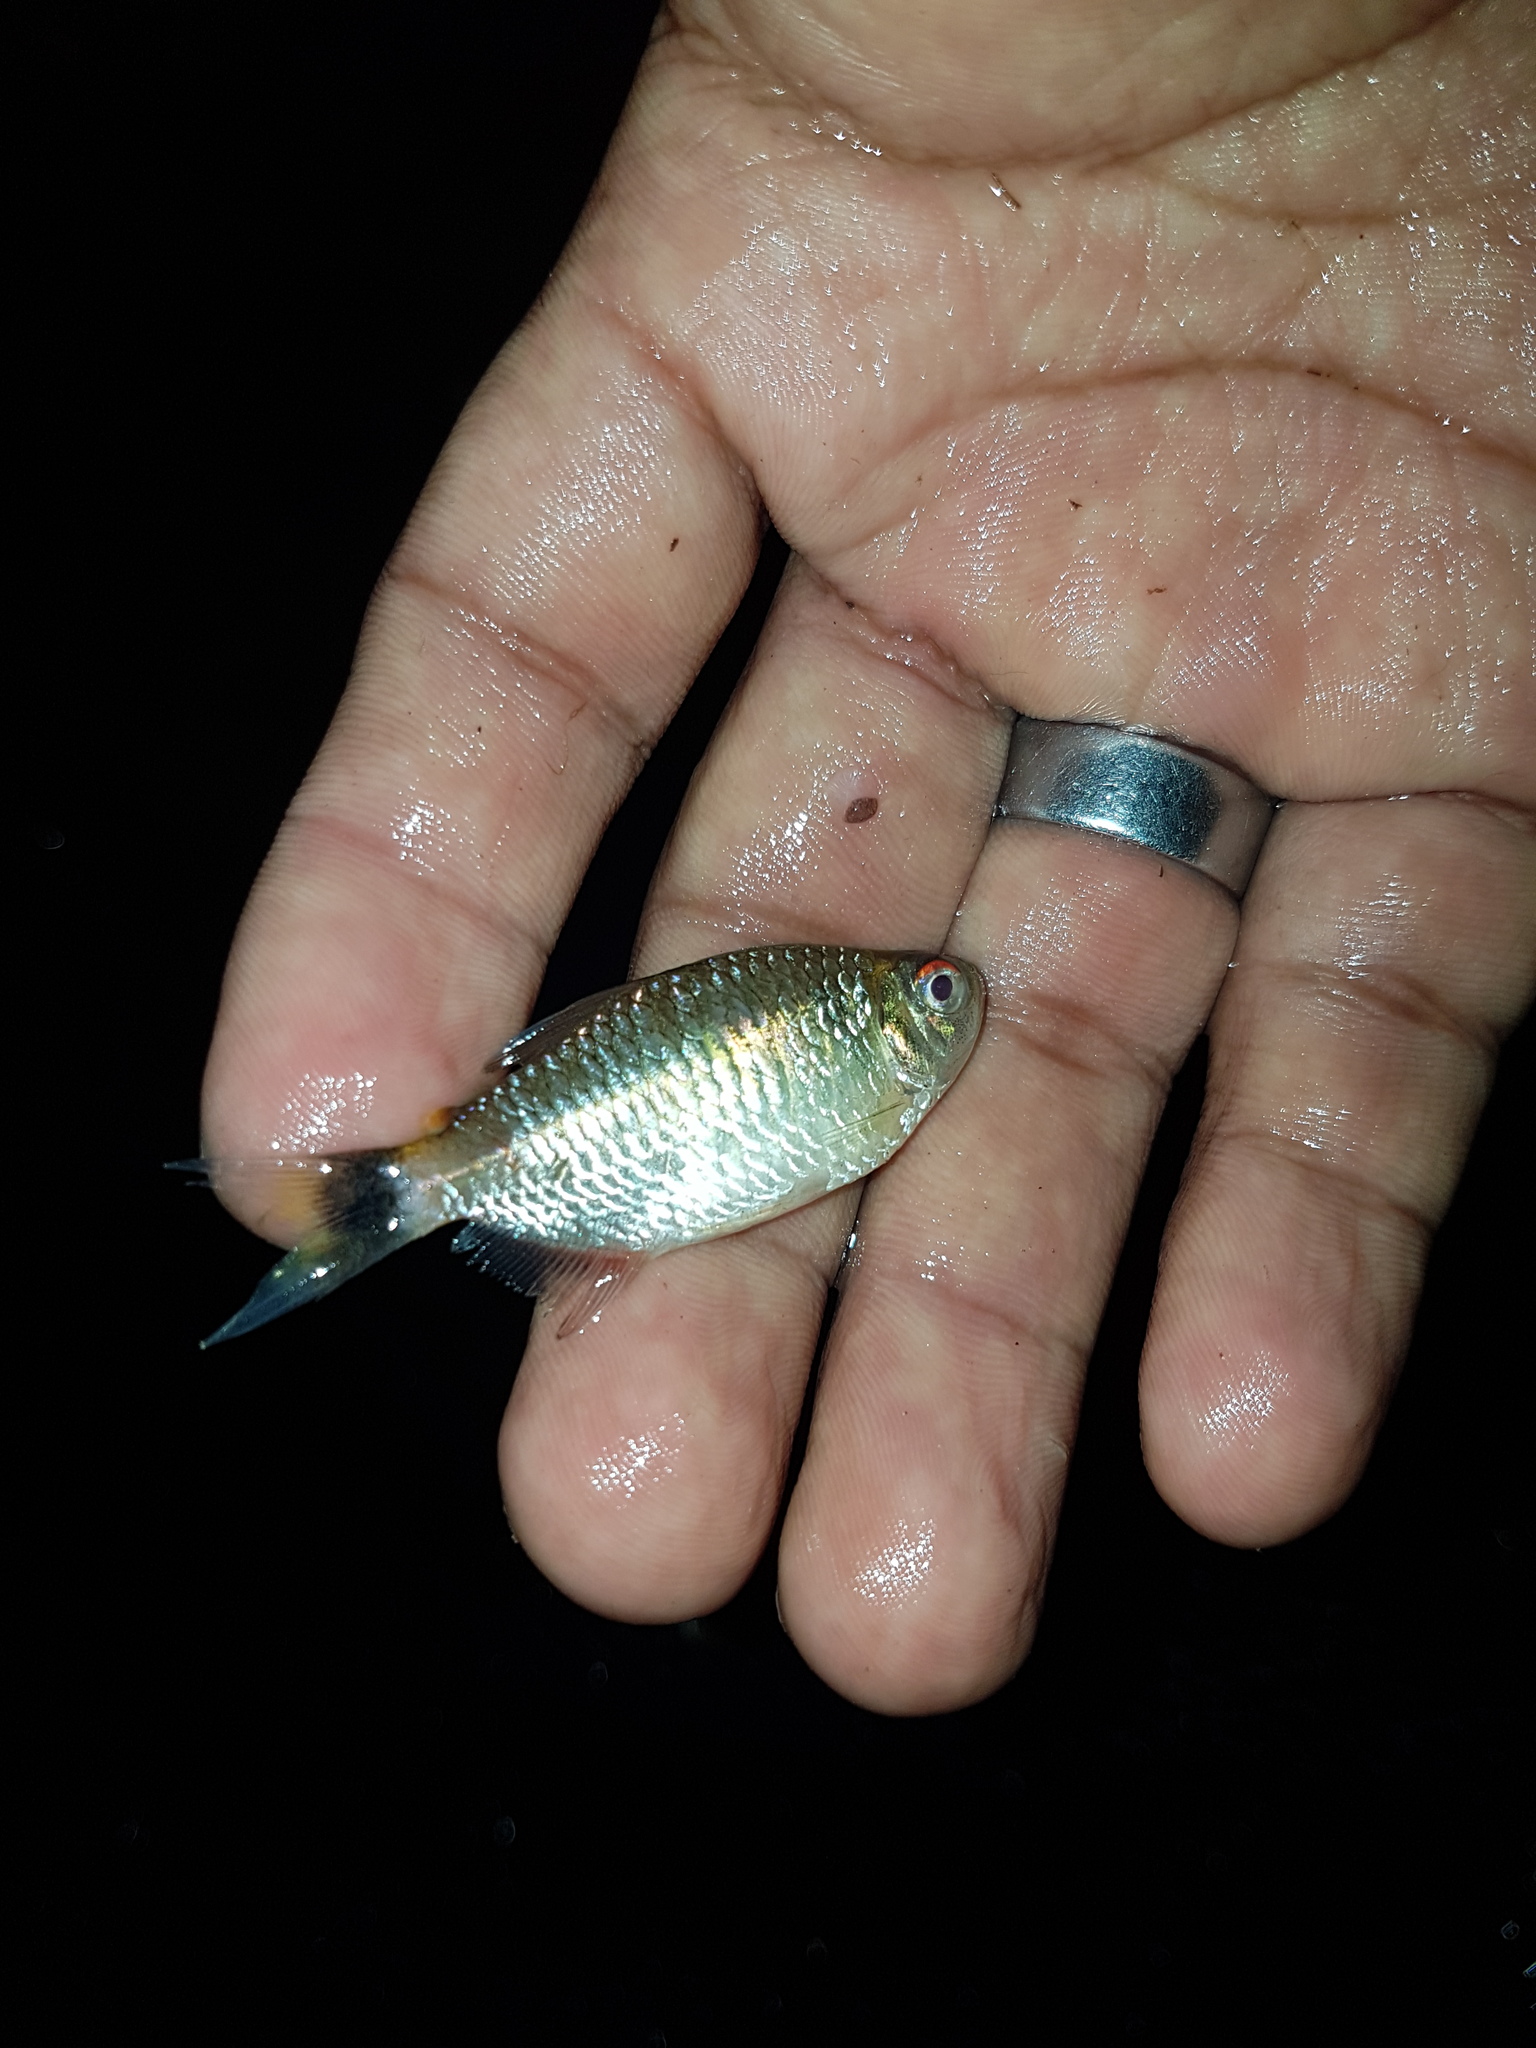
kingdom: Animalia
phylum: Chordata
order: Characiformes
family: Characidae
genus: Moenkhausia
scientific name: Moenkhausia oligolepis
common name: Glass tetra
